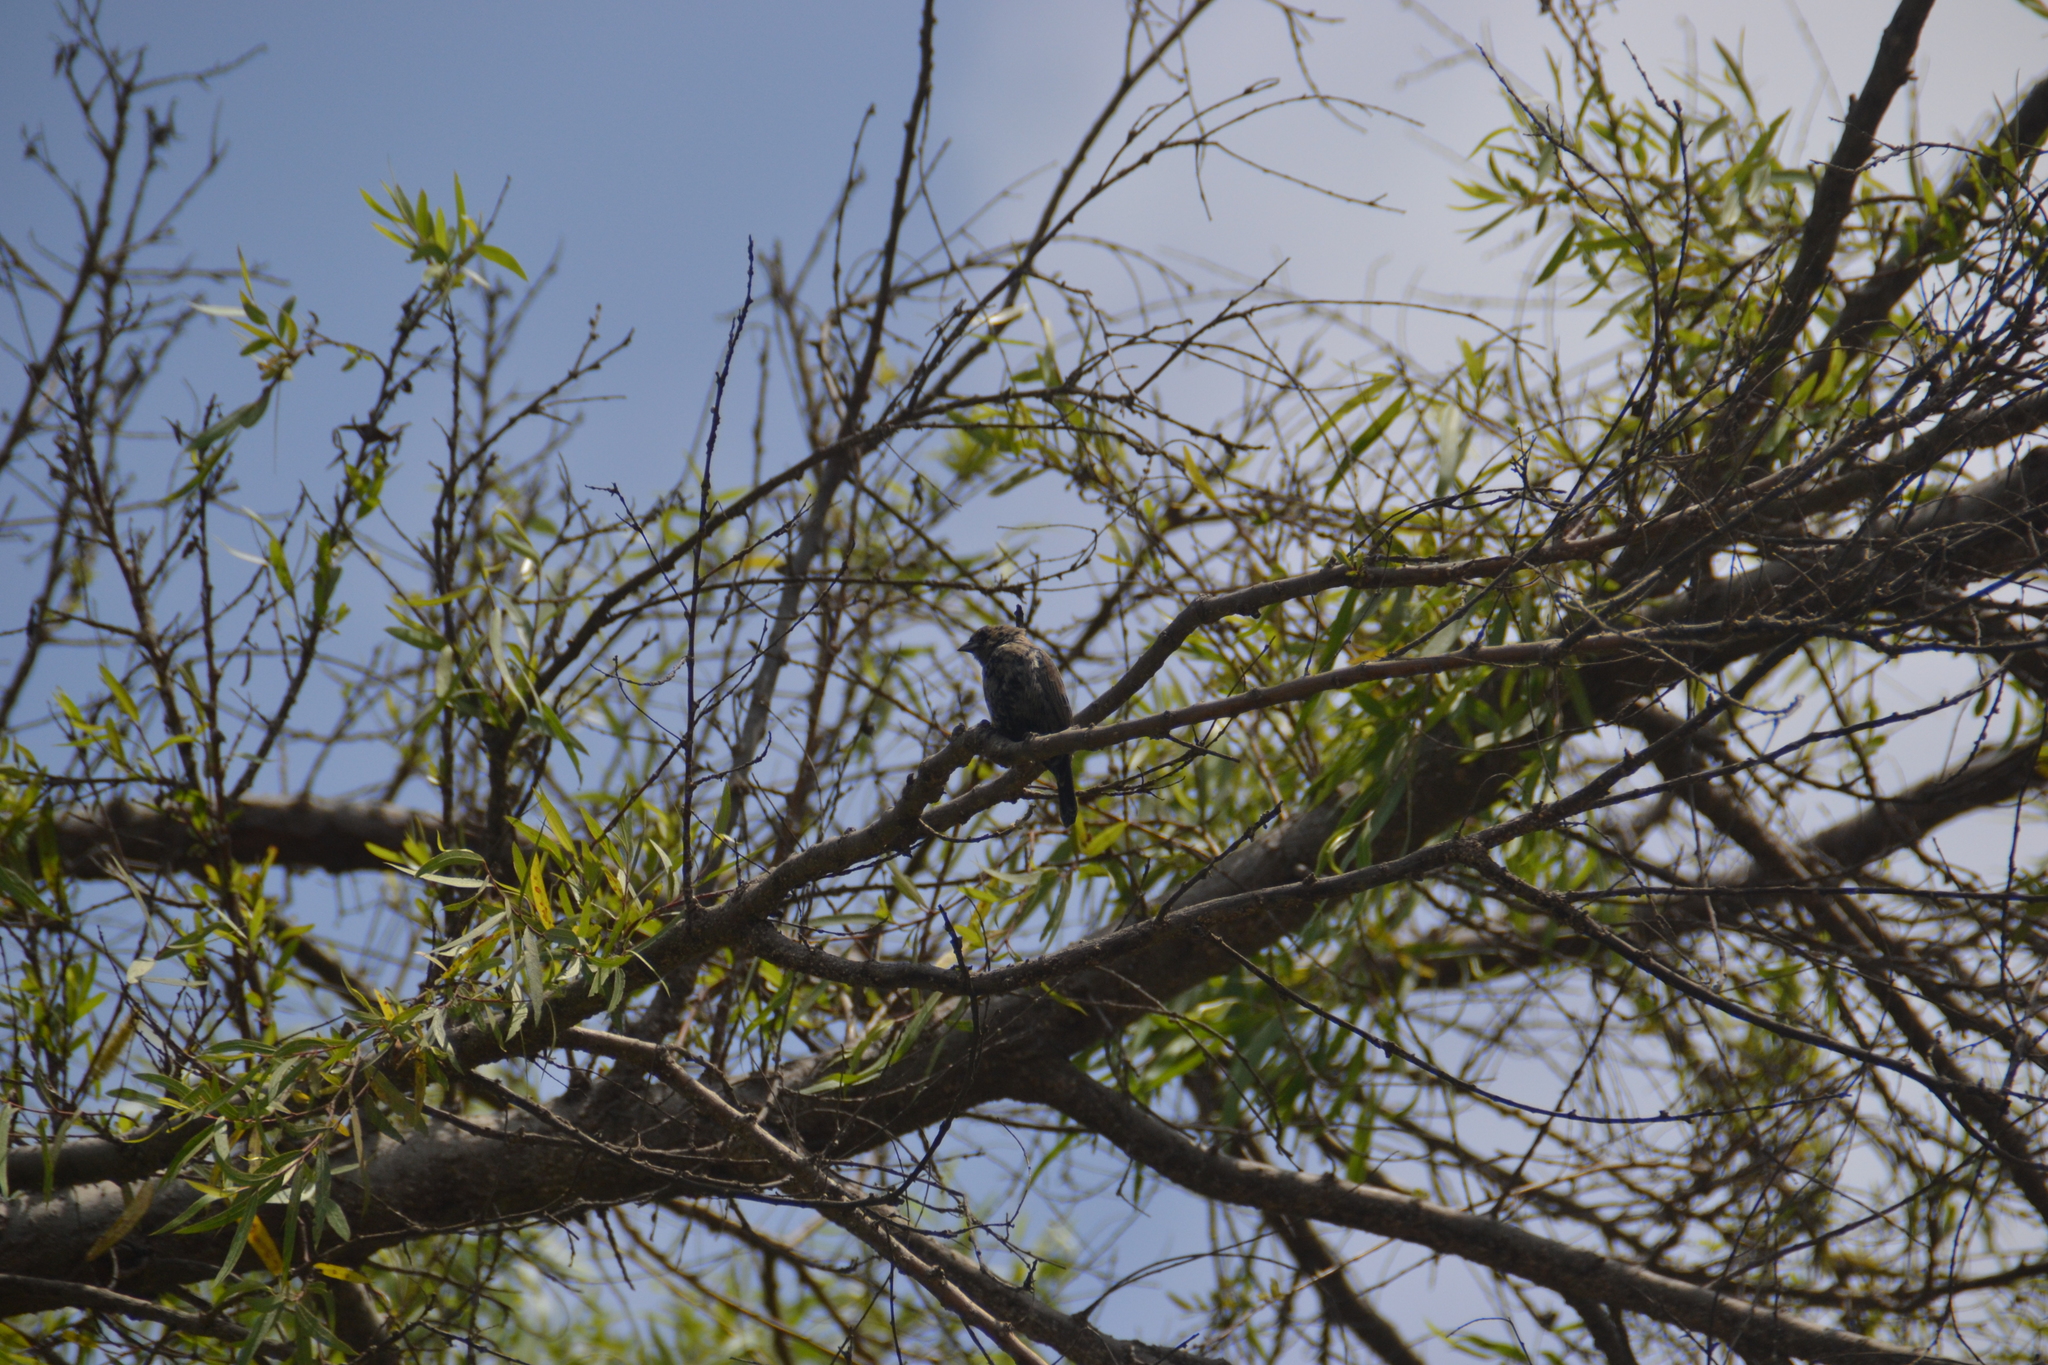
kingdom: Animalia
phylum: Chordata
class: Aves
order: Passeriformes
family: Thraupidae
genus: Volatinia
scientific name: Volatinia jacarina
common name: Blue-black grassquit
